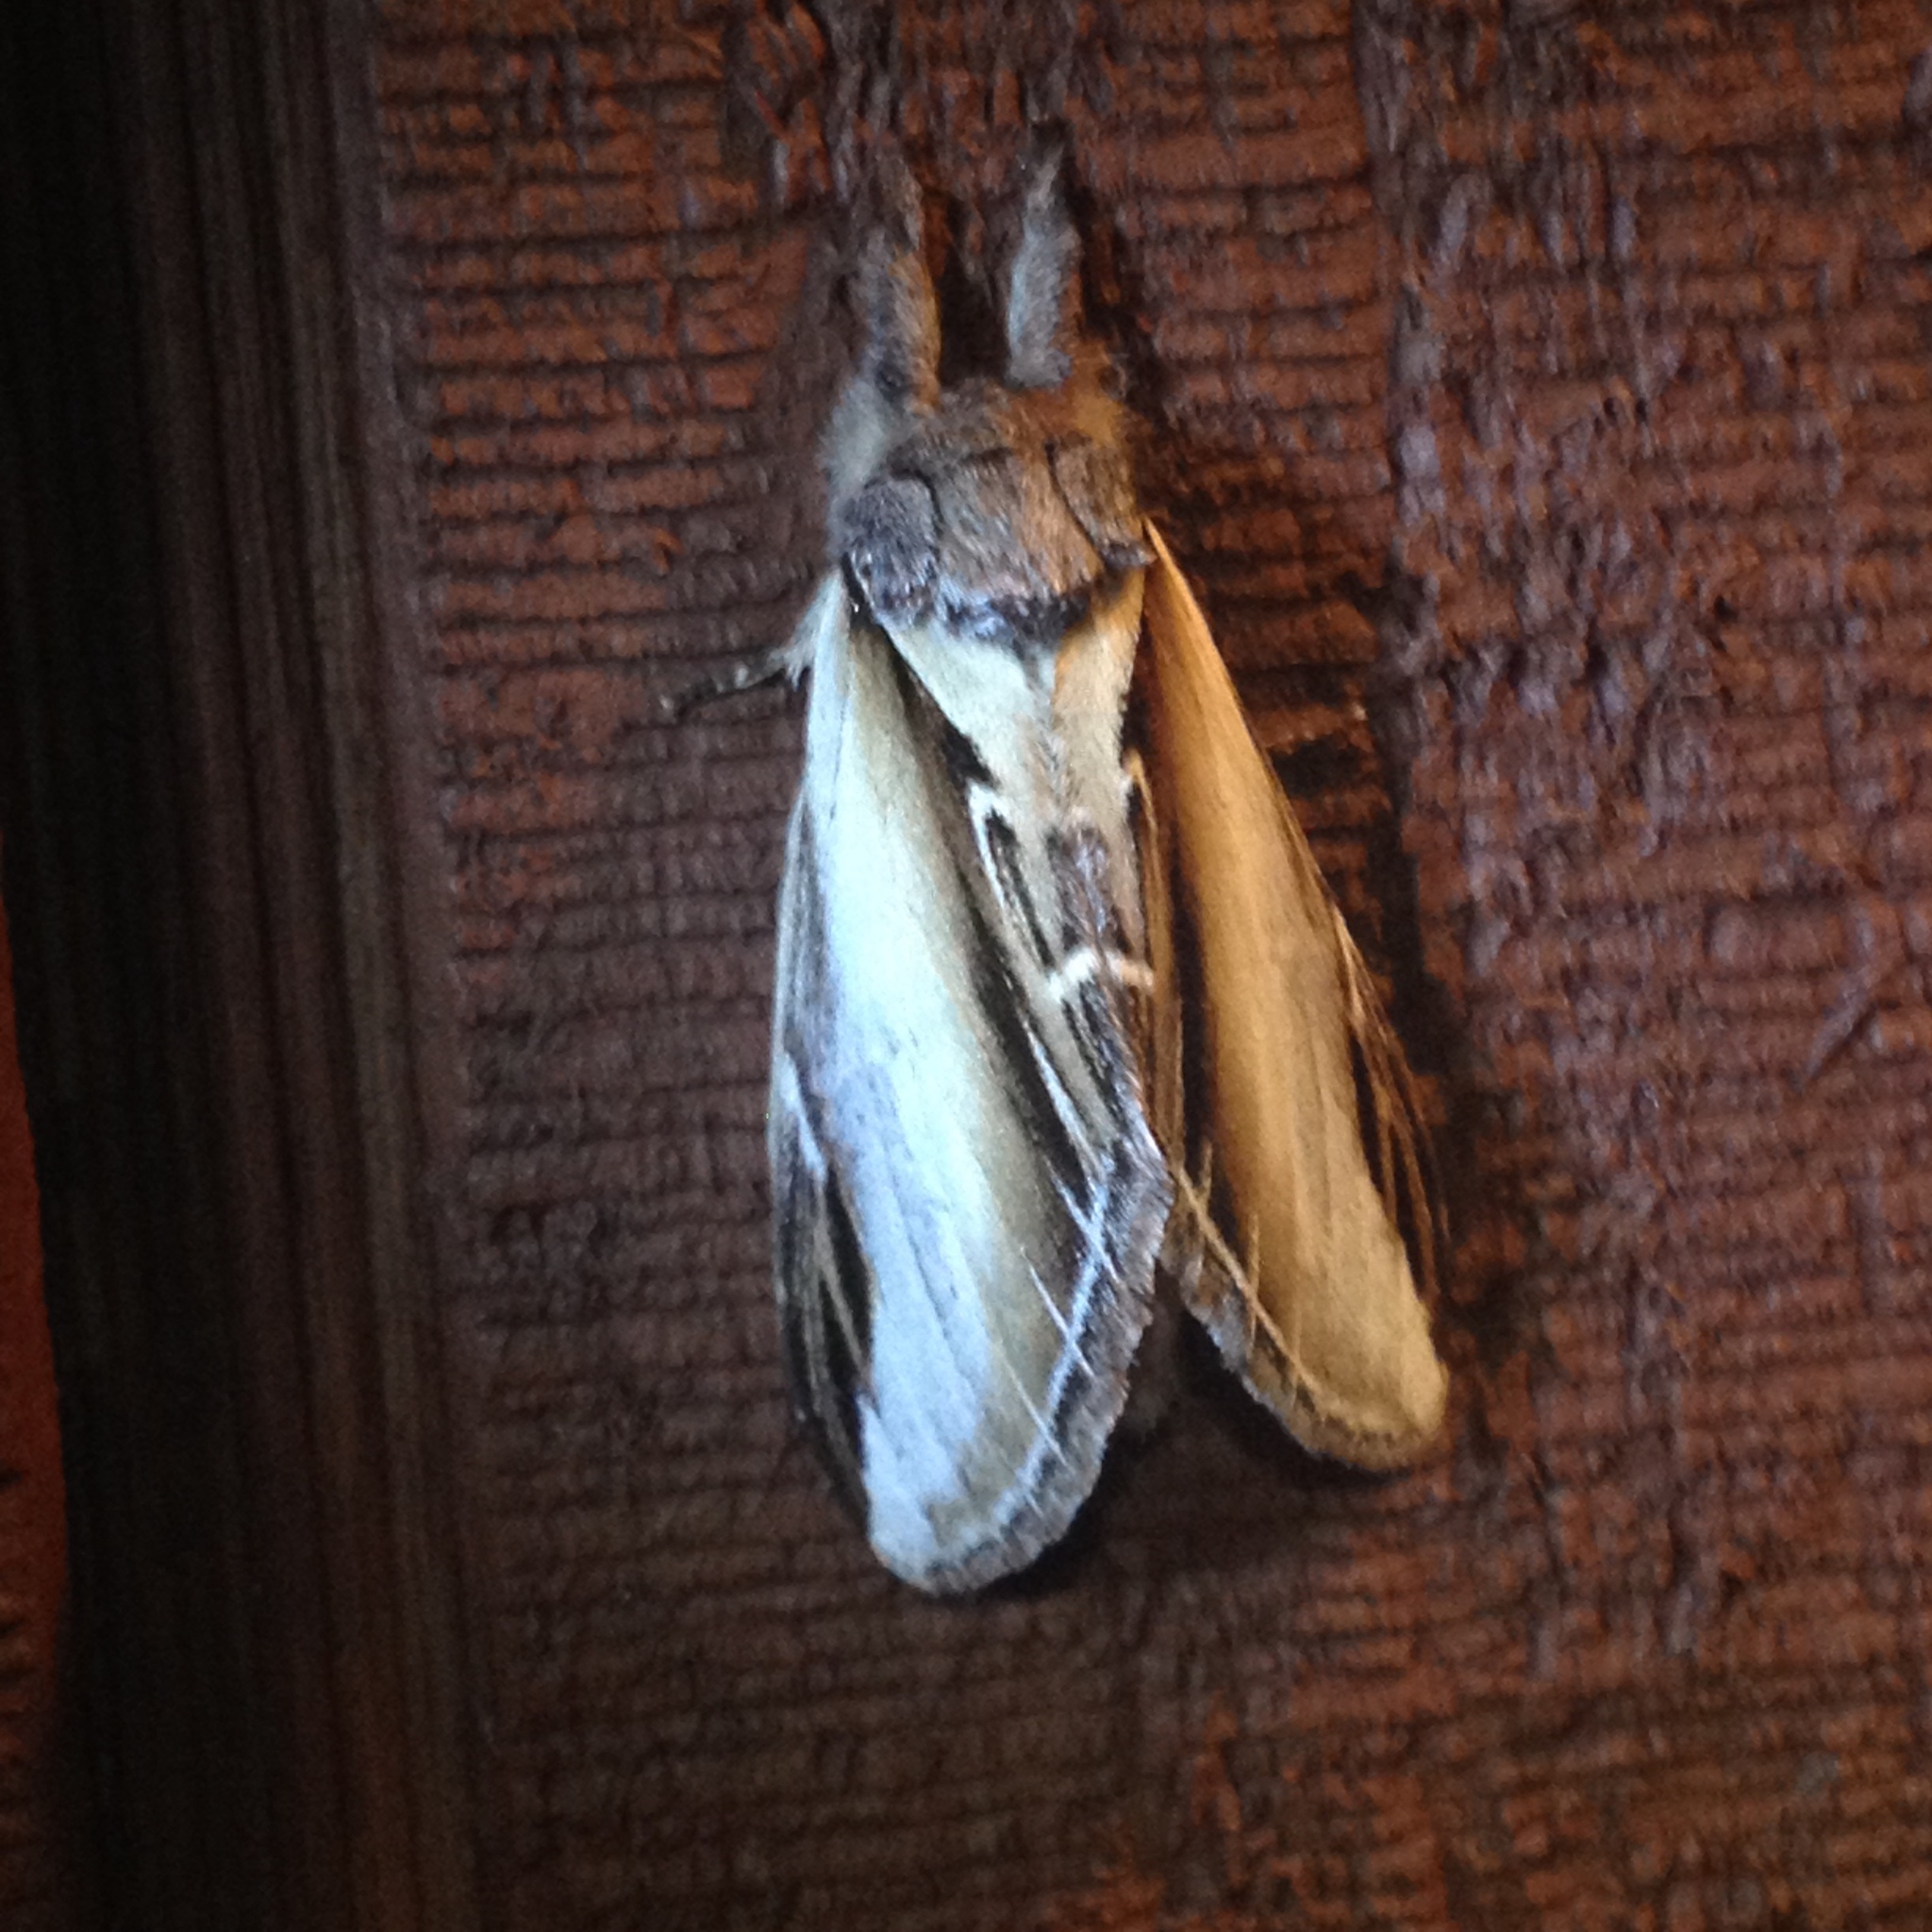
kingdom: Animalia
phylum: Arthropoda
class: Insecta
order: Lepidoptera
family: Notodontidae
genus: Pheosia
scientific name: Pheosia rimosa
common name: Black-rimmed prominent
